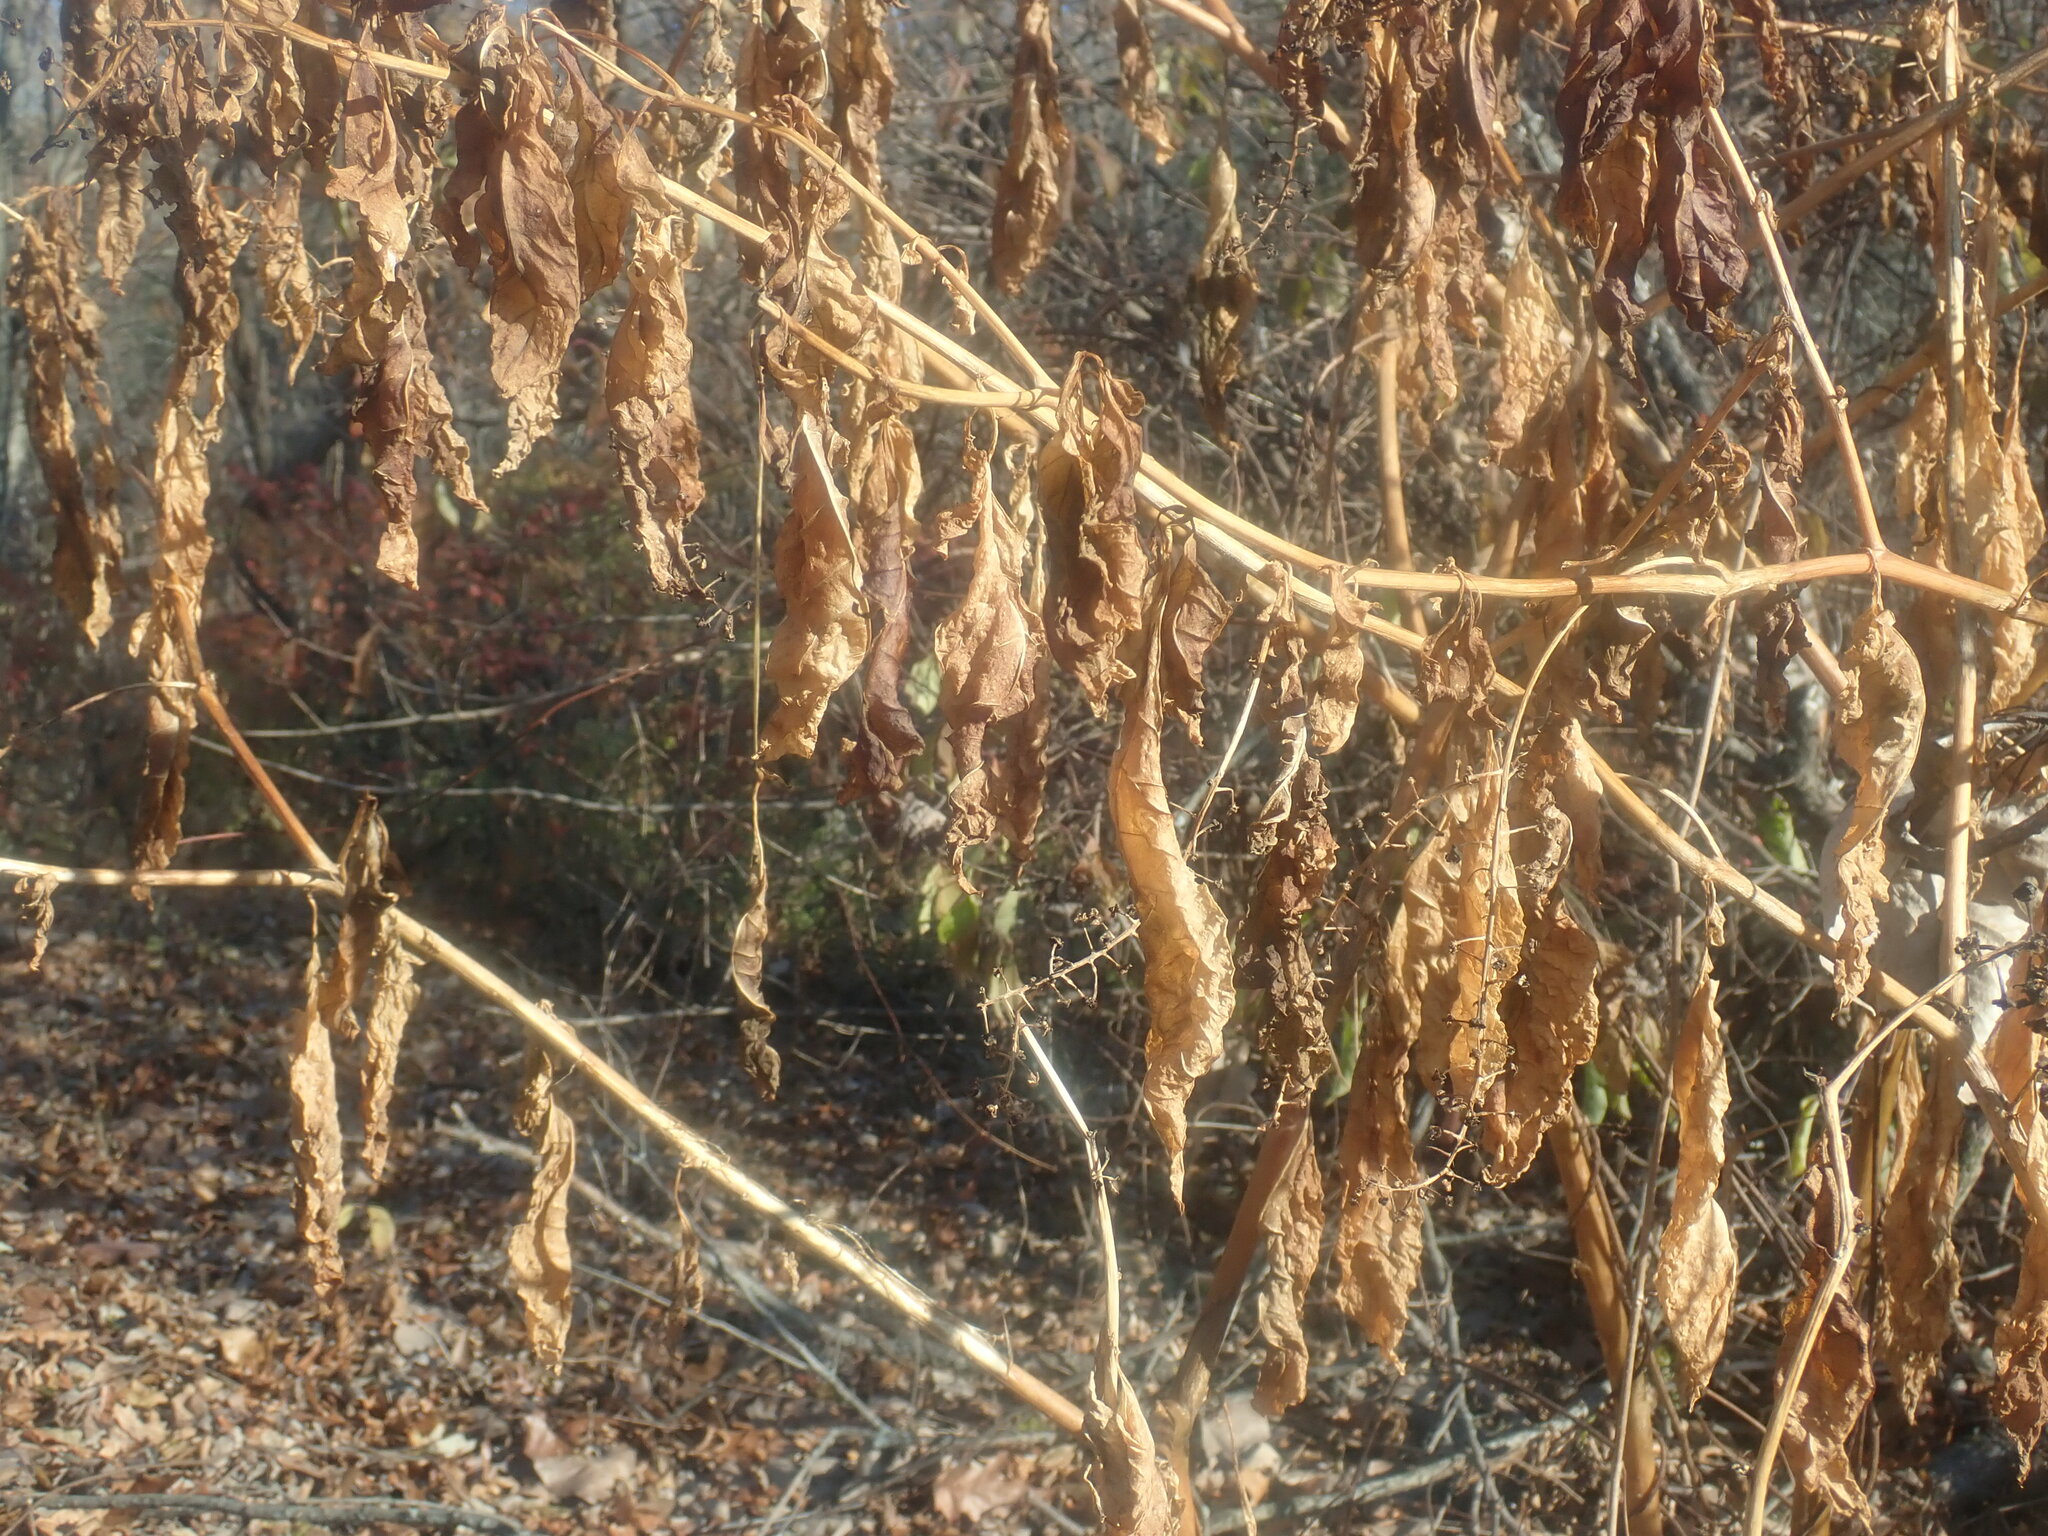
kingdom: Plantae
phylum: Tracheophyta
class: Magnoliopsida
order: Caryophyllales
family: Phytolaccaceae
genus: Phytolacca
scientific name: Phytolacca americana
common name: American pokeweed
